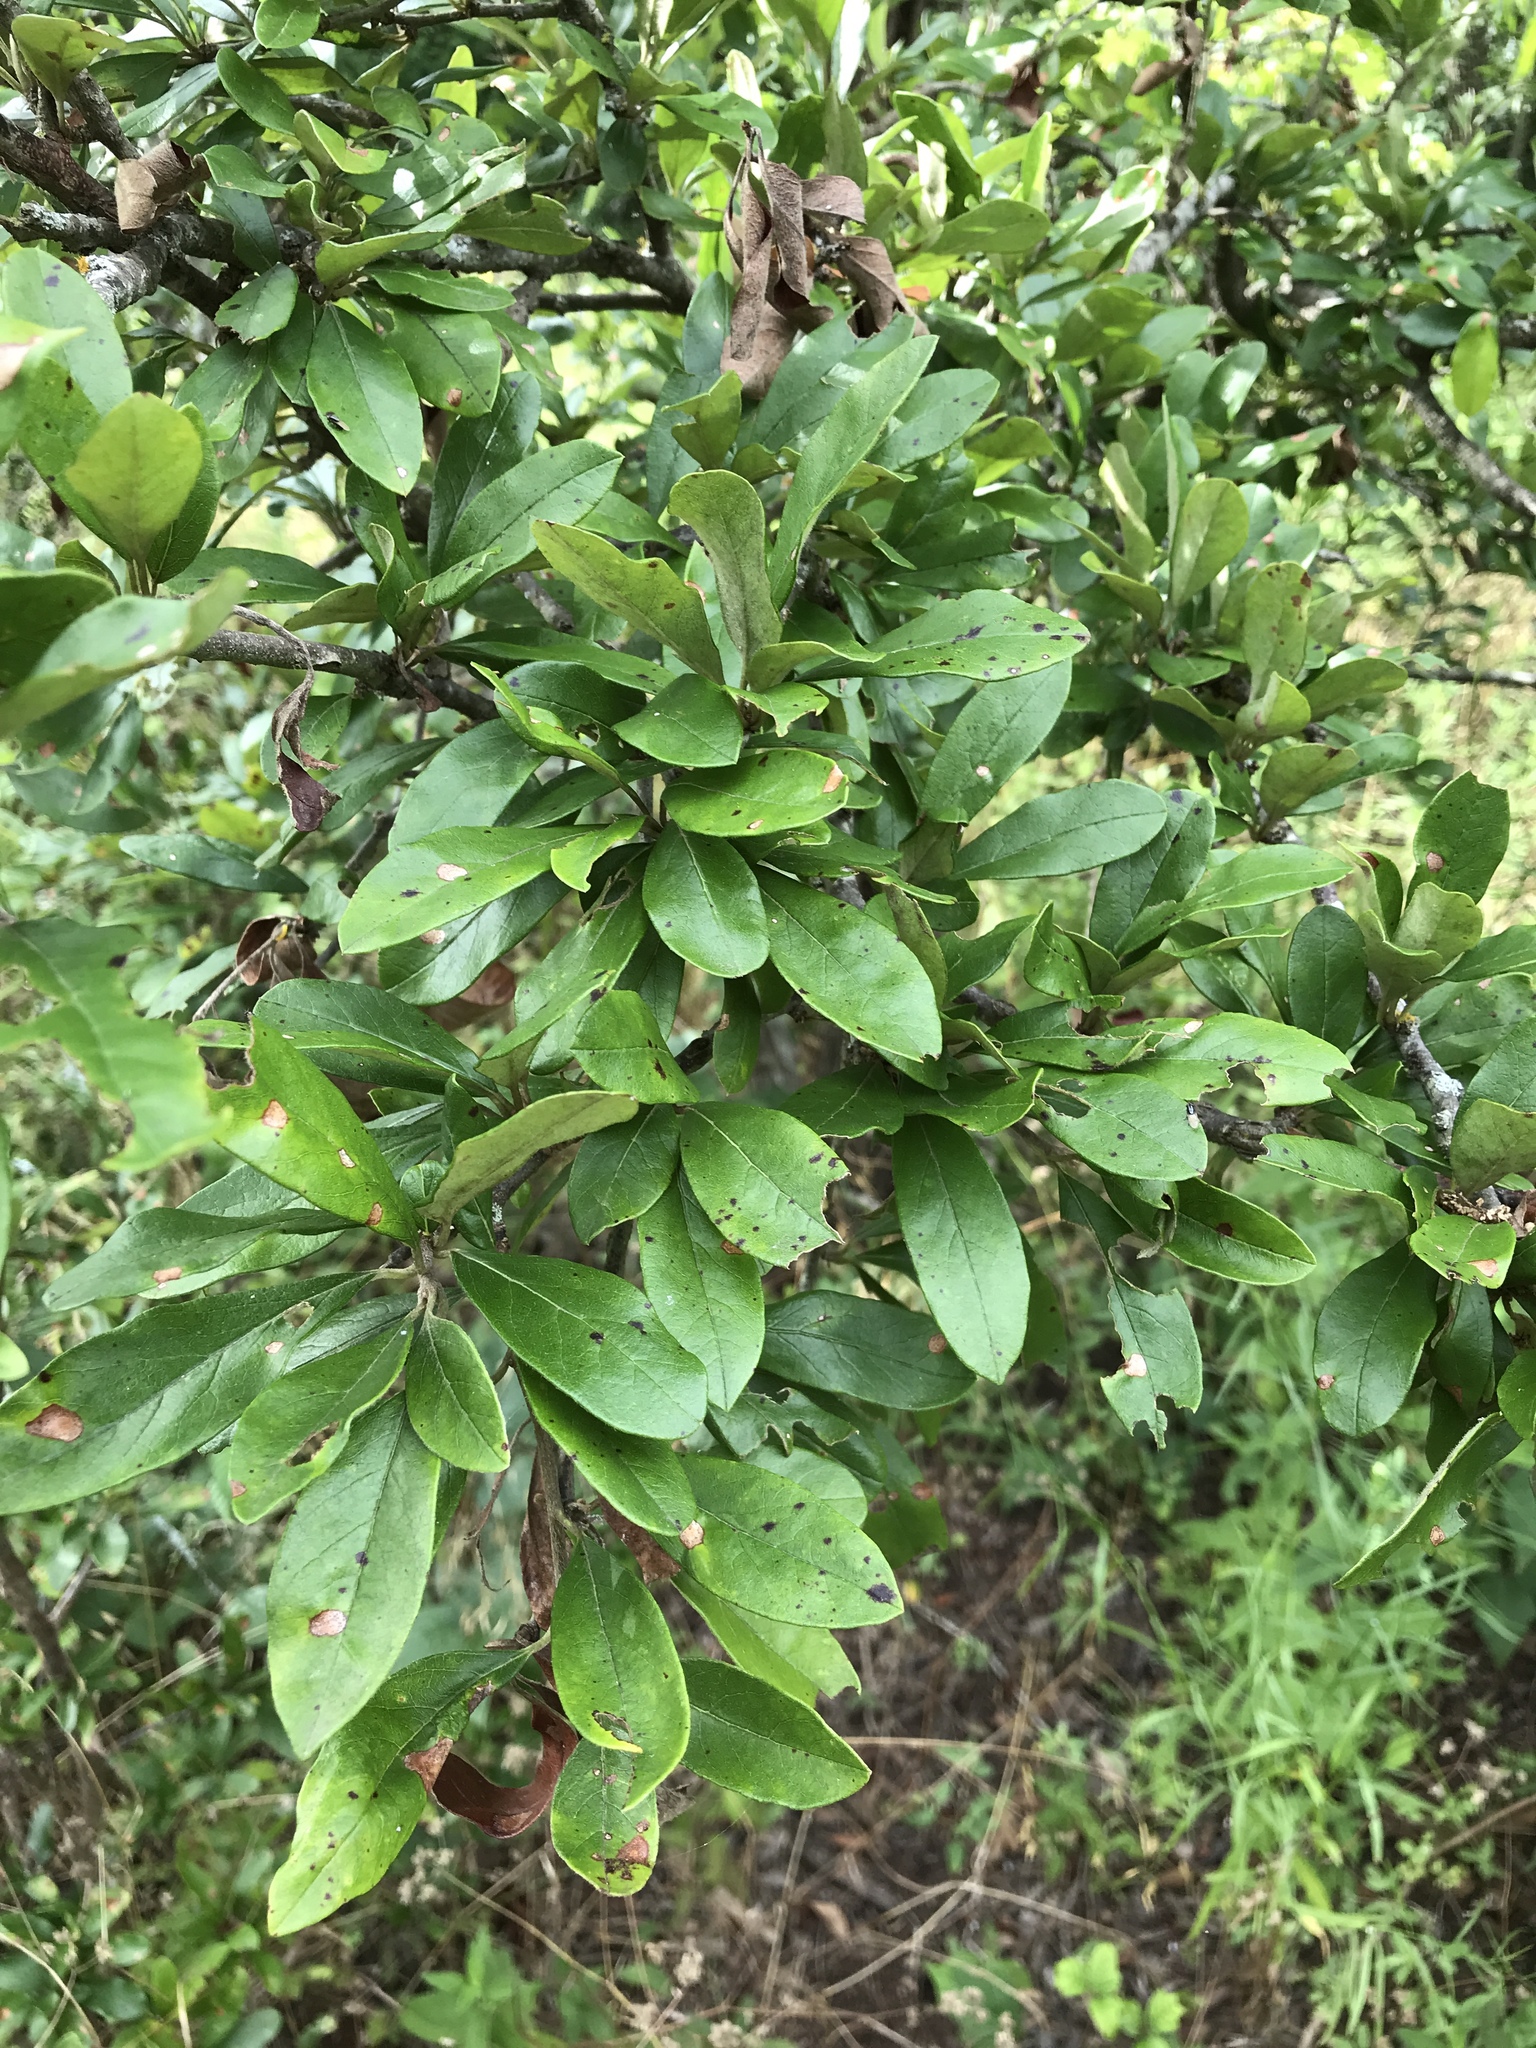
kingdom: Plantae
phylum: Tracheophyta
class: Magnoliopsida
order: Ericales
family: Sapotaceae
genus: Sideroxylon
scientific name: Sideroxylon lanuginosum
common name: Chittamwood
